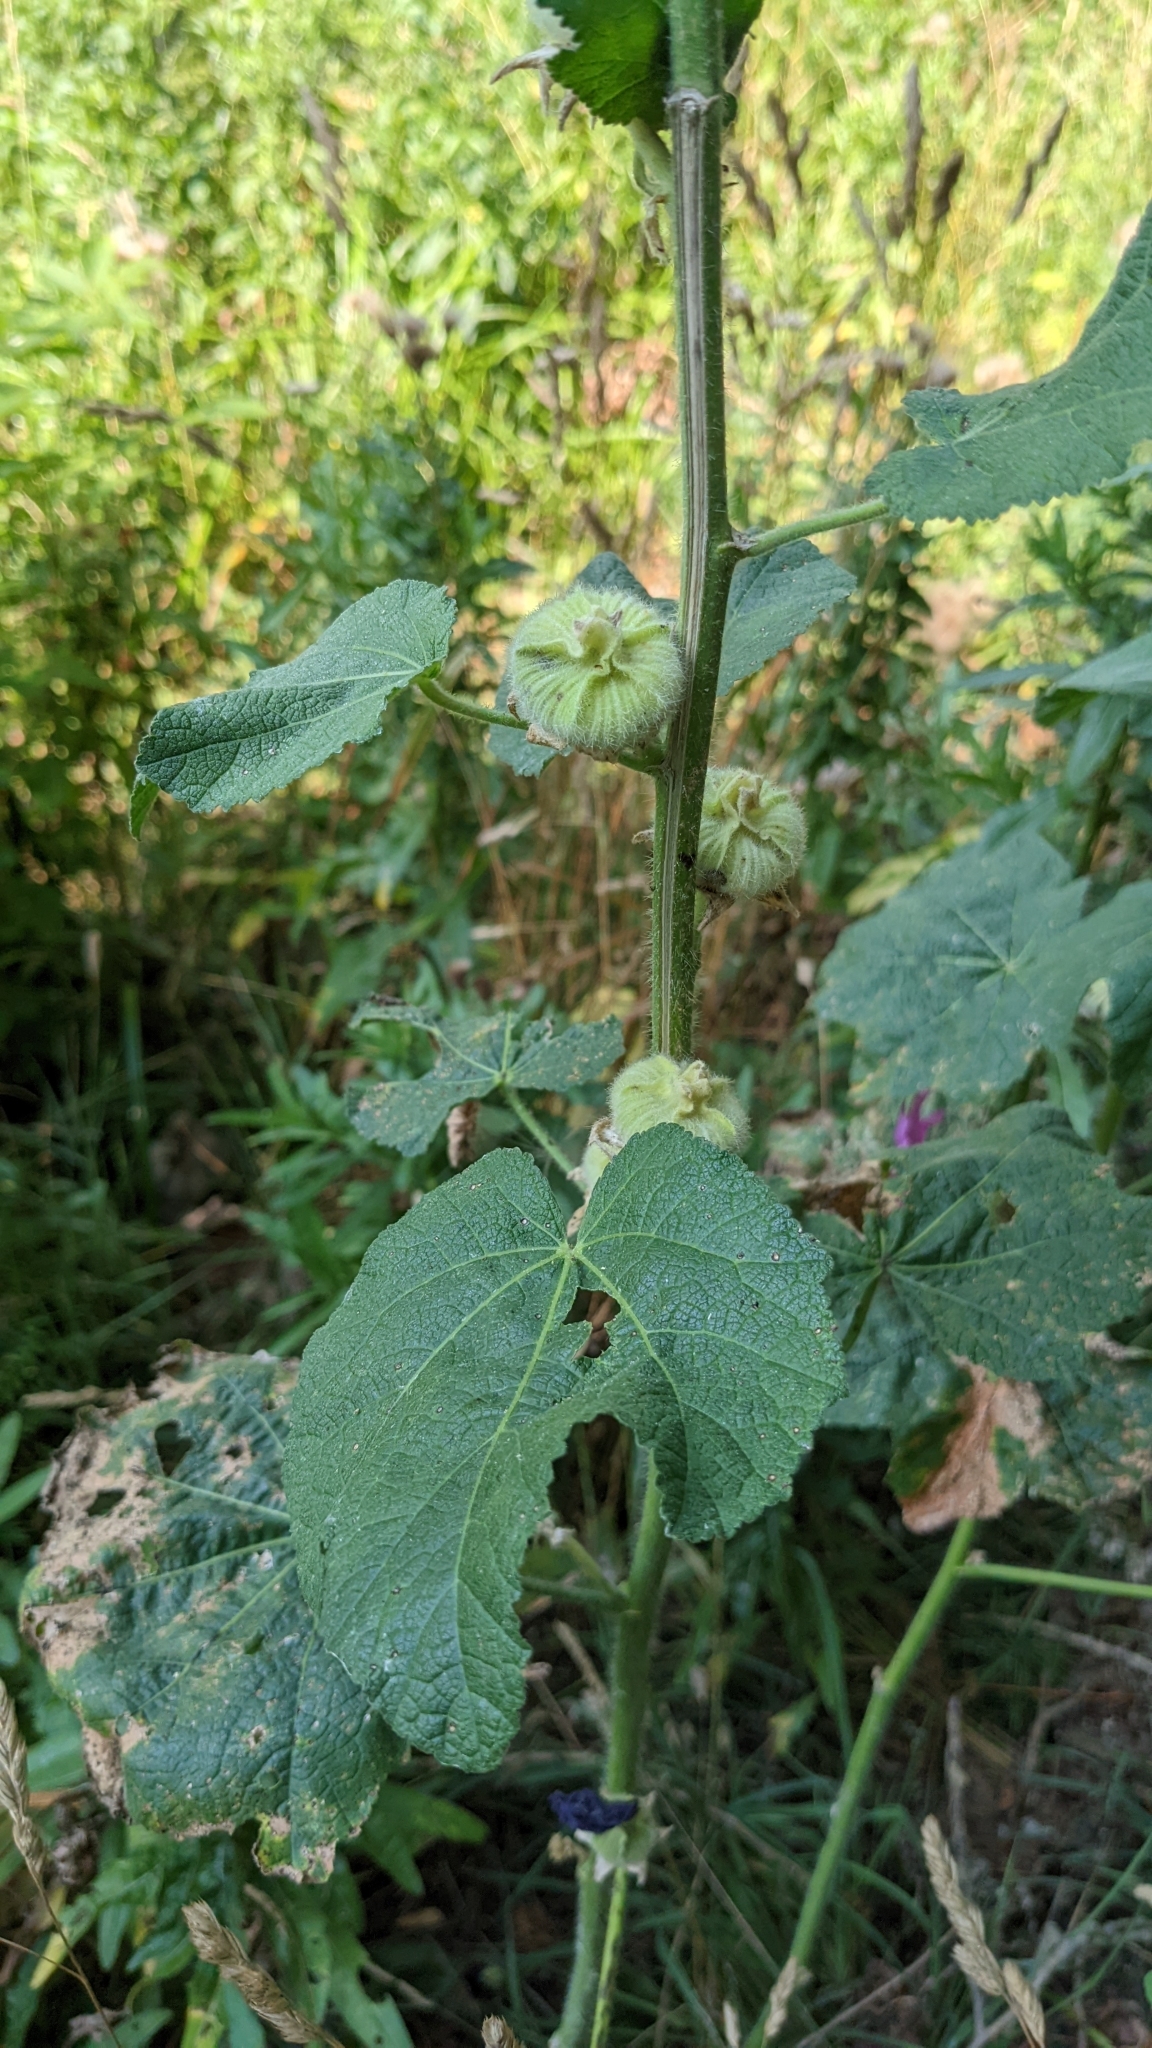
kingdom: Plantae
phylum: Tracheophyta
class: Magnoliopsida
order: Malvales
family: Malvaceae
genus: Alcea
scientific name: Alcea rosea
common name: Hollyhock
